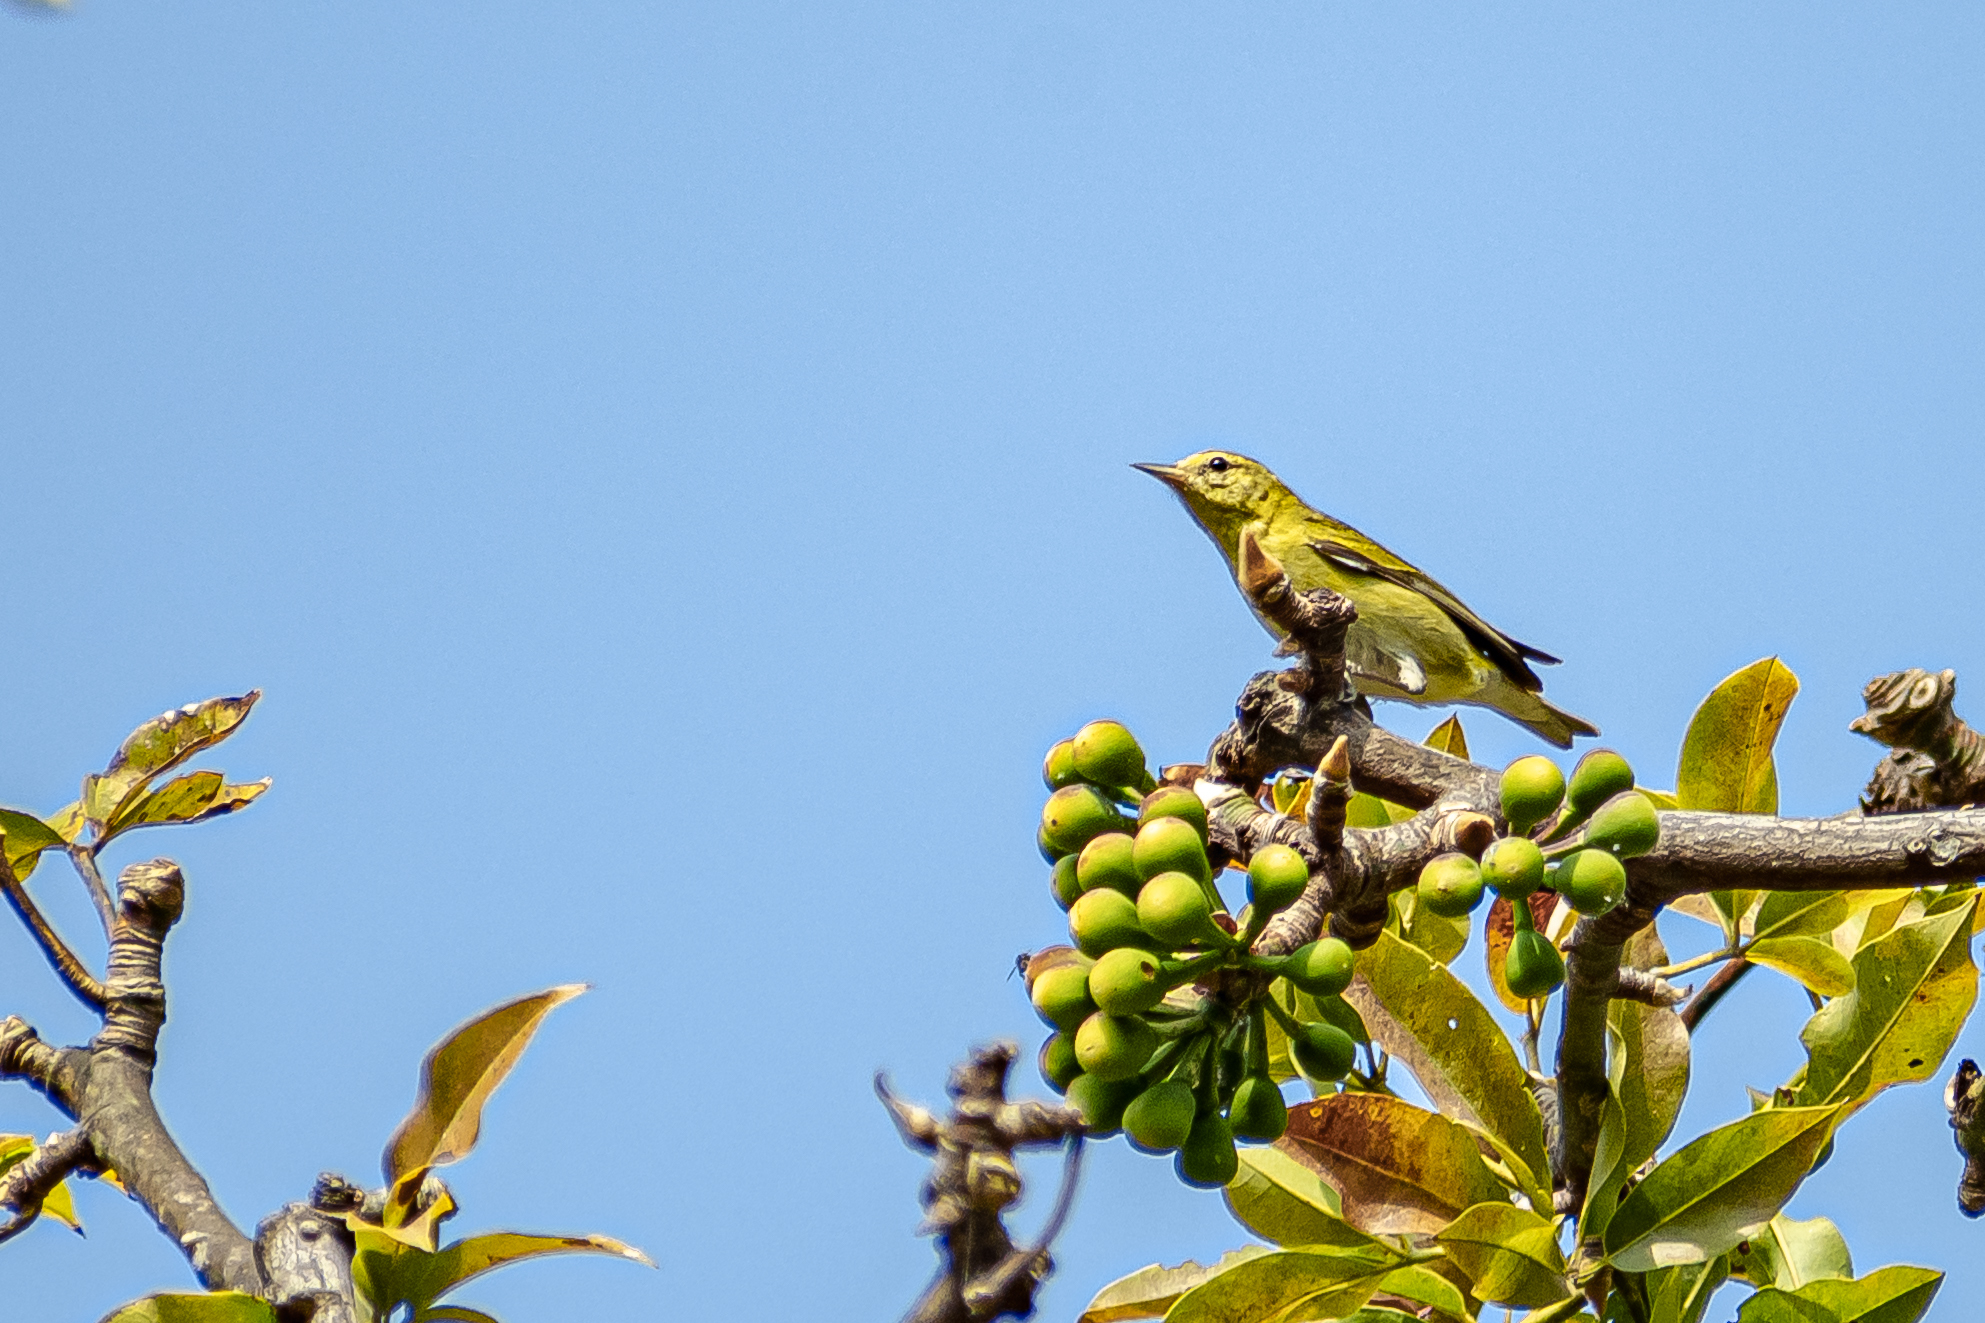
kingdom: Animalia
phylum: Chordata
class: Aves
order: Passeriformes
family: Parulidae
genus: Leiothlypis
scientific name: Leiothlypis peregrina
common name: Tennessee warbler
